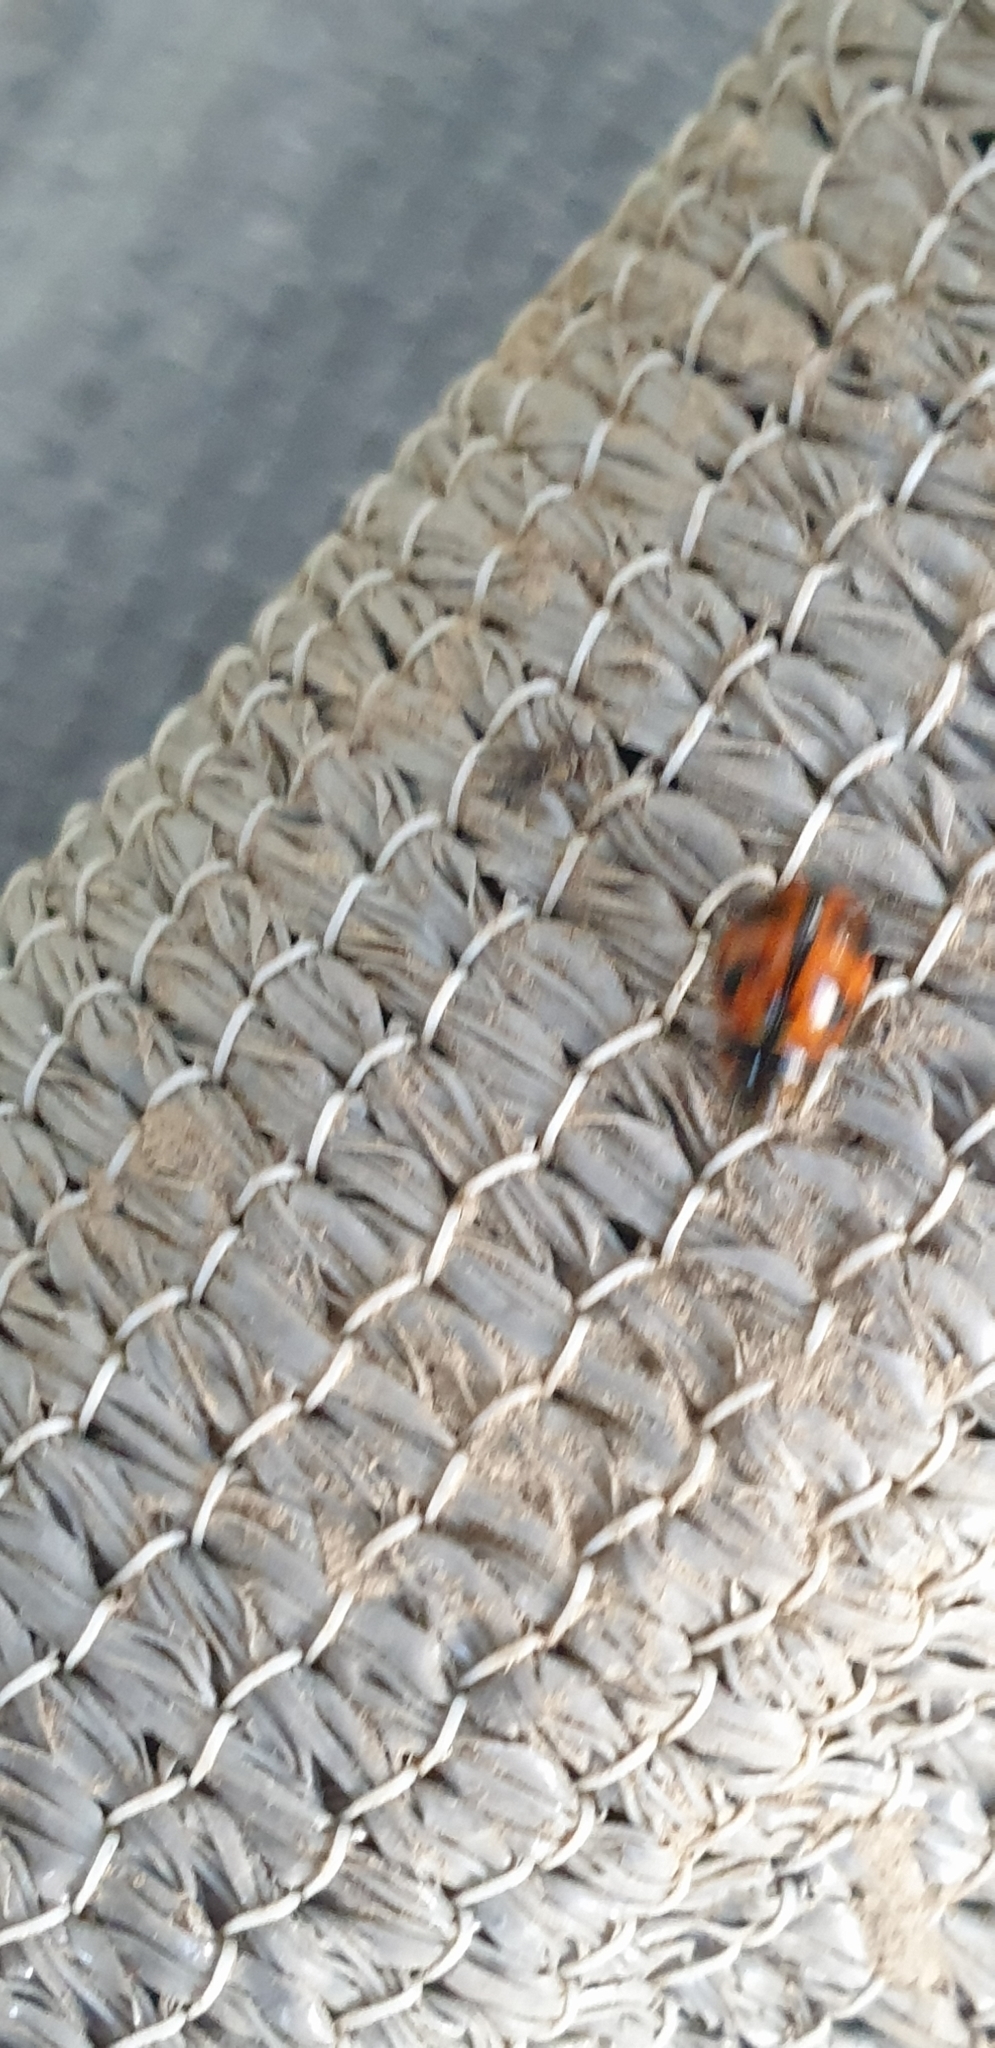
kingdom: Animalia
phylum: Arthropoda
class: Insecta
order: Coleoptera
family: Coccinellidae
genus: Coccinella
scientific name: Coccinella transversalis
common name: Transverse lady beetle
